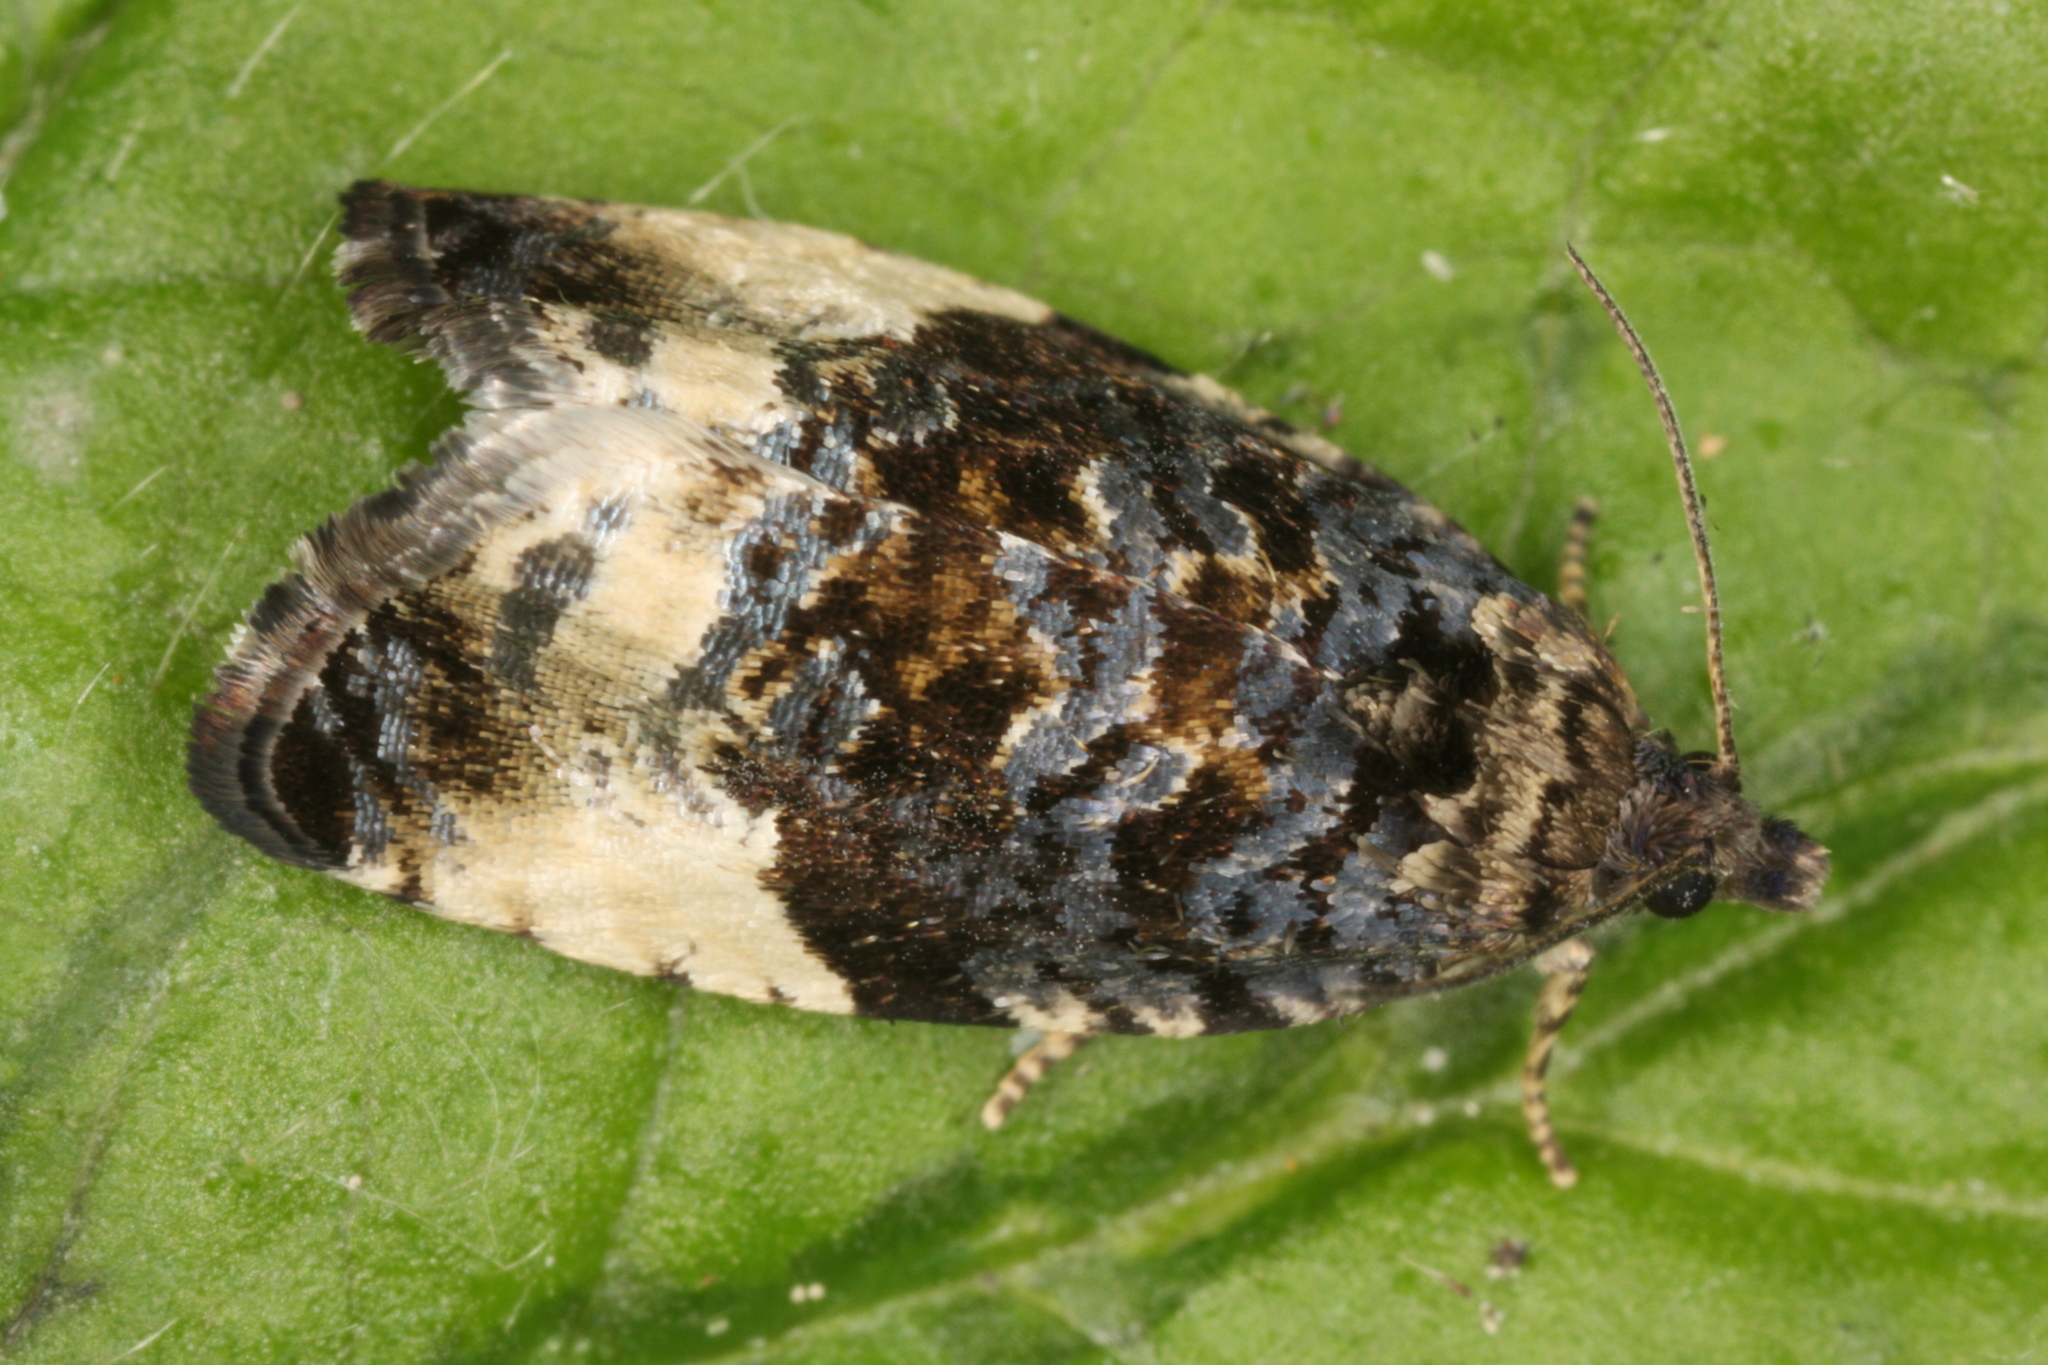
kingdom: Animalia
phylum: Arthropoda
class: Insecta
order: Lepidoptera
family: Tortricidae
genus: Hedya
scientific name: Hedya pruniana
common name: Plum tortrix
